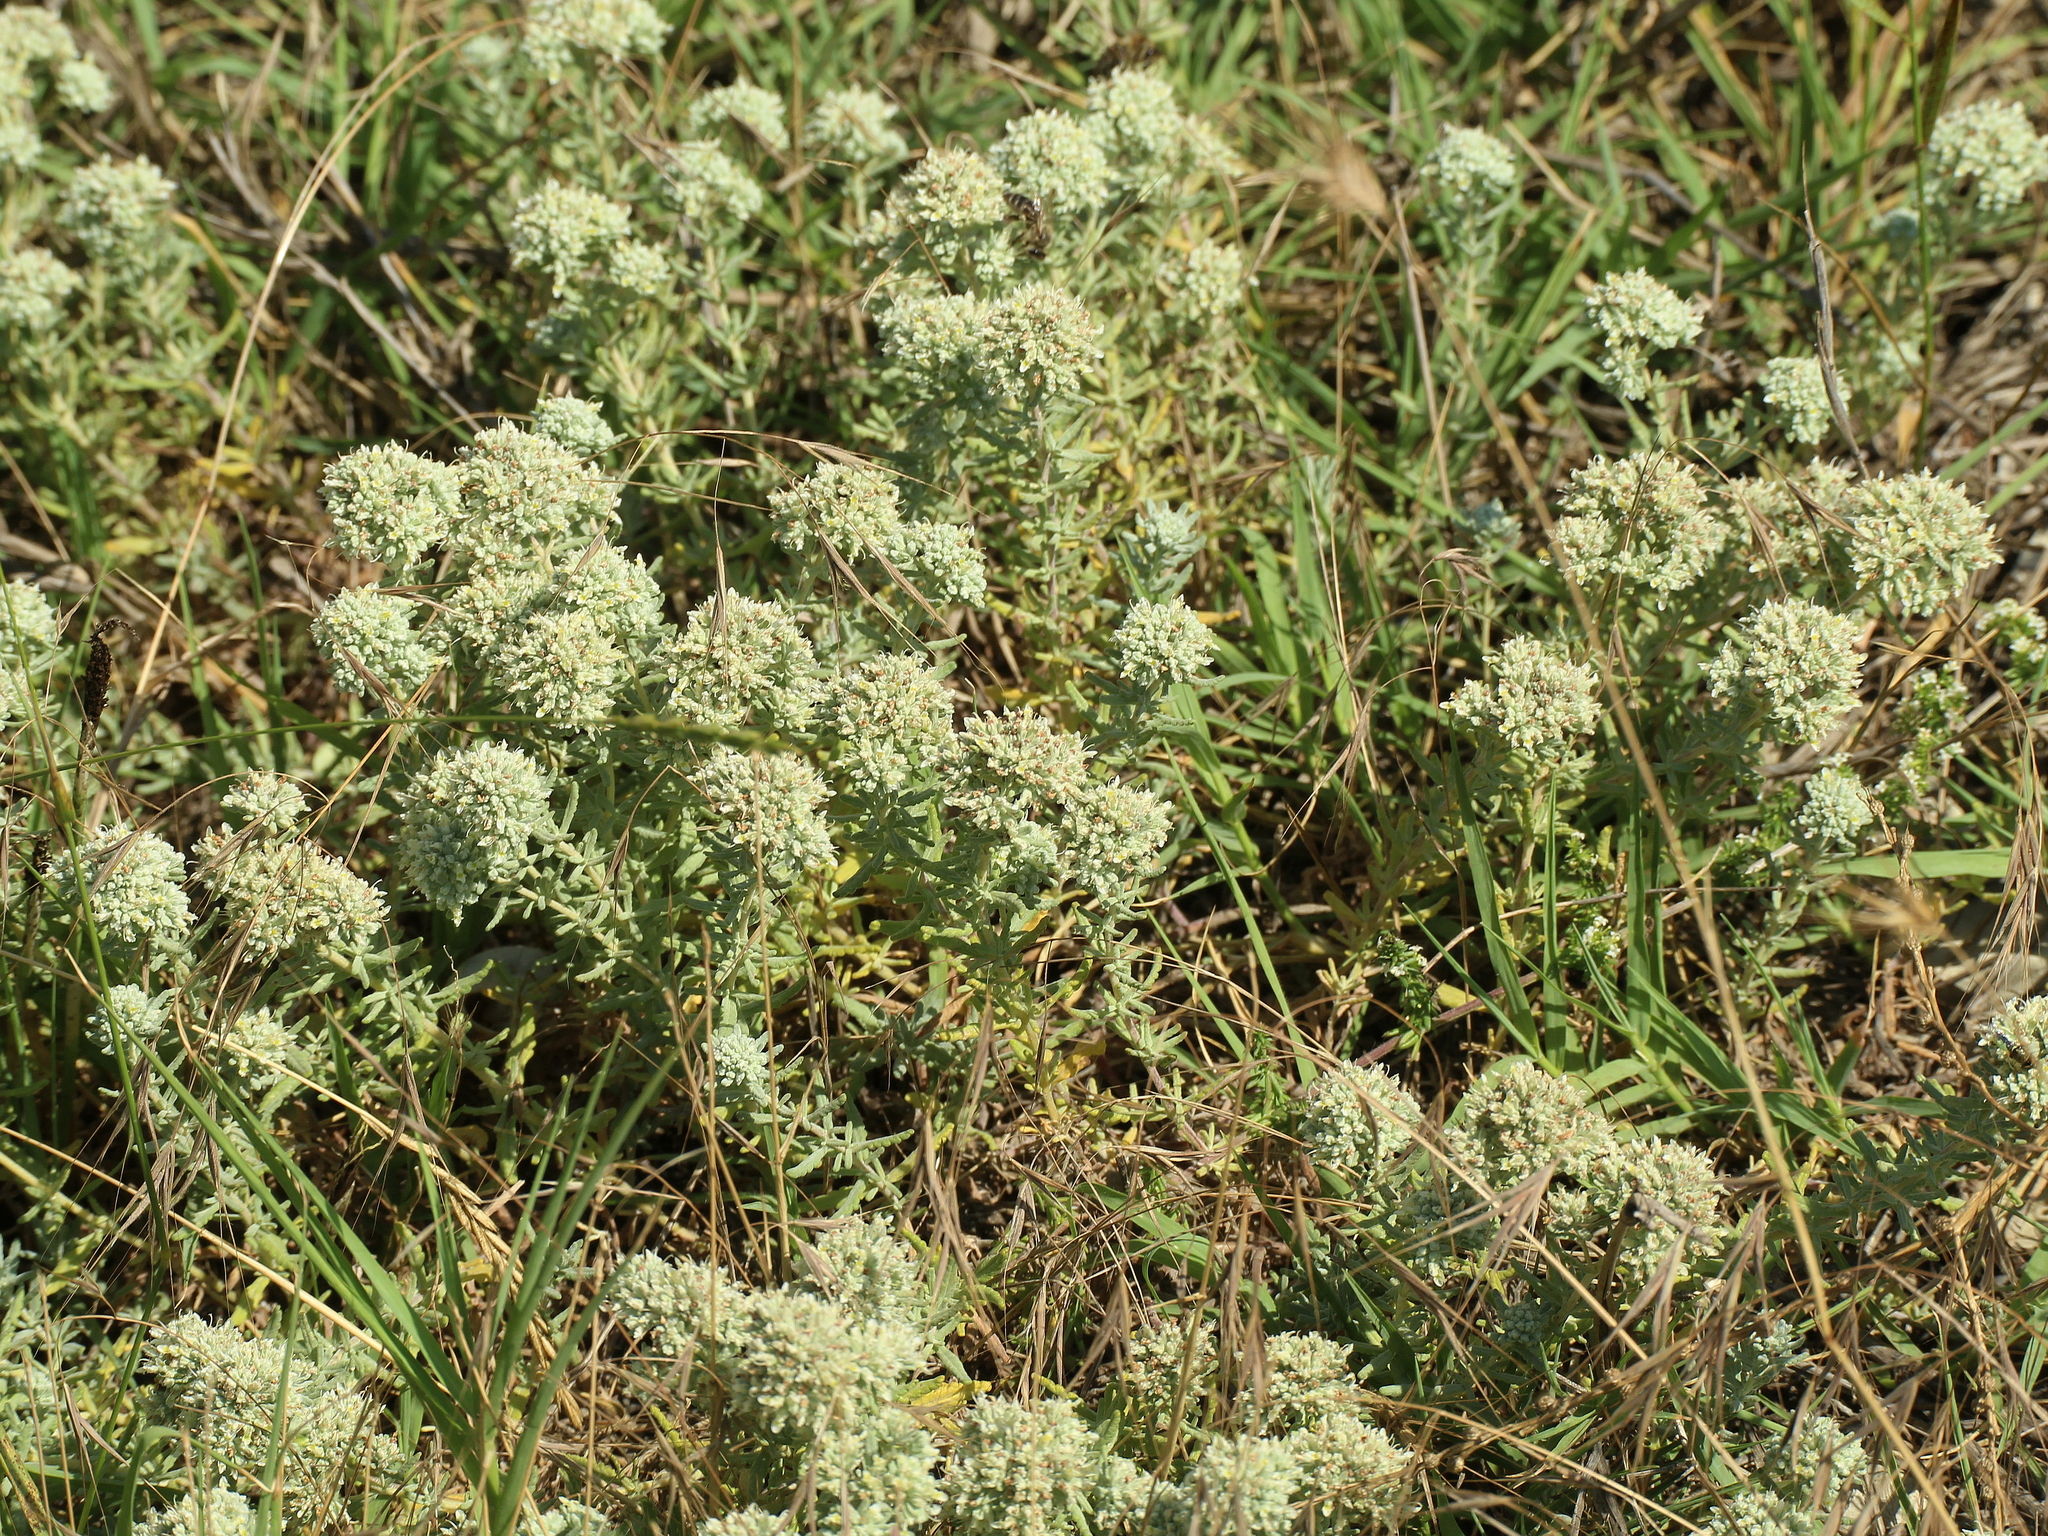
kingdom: Plantae
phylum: Tracheophyta
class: Magnoliopsida
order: Lamiales
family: Lamiaceae
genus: Teucrium
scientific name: Teucrium polium
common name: Poley
